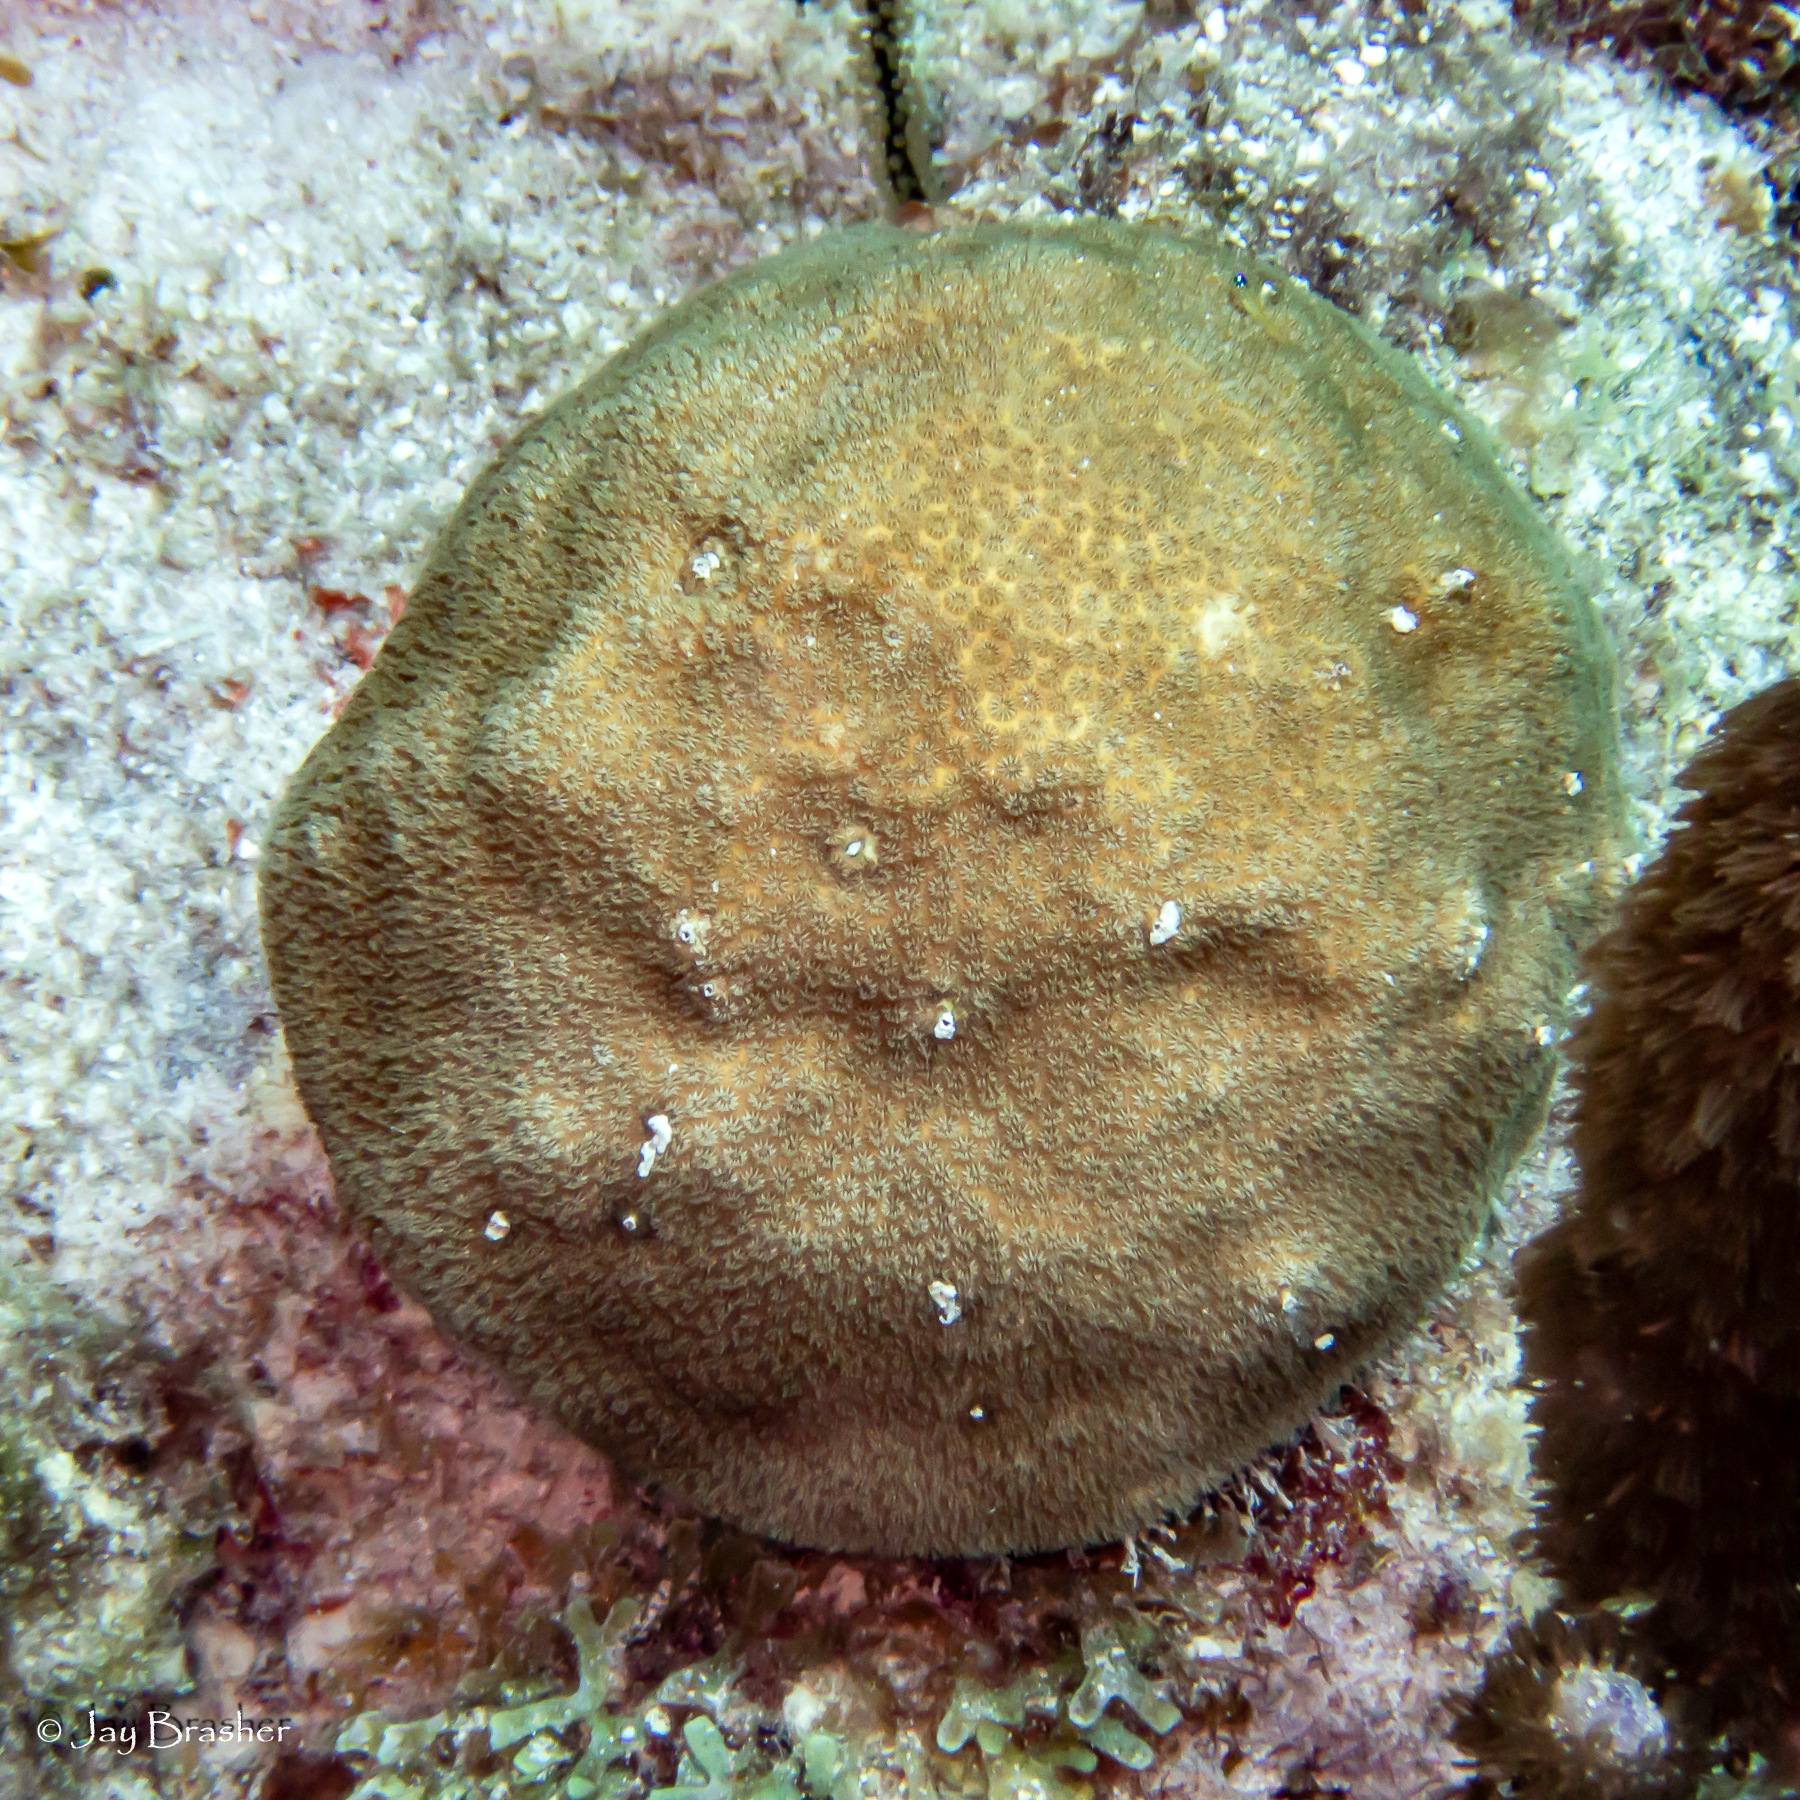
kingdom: Animalia
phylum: Cnidaria
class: Anthozoa
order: Scleractinia
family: Faviidae
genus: Solenastrea
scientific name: Solenastrea bournoni
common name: Smooth star coral
